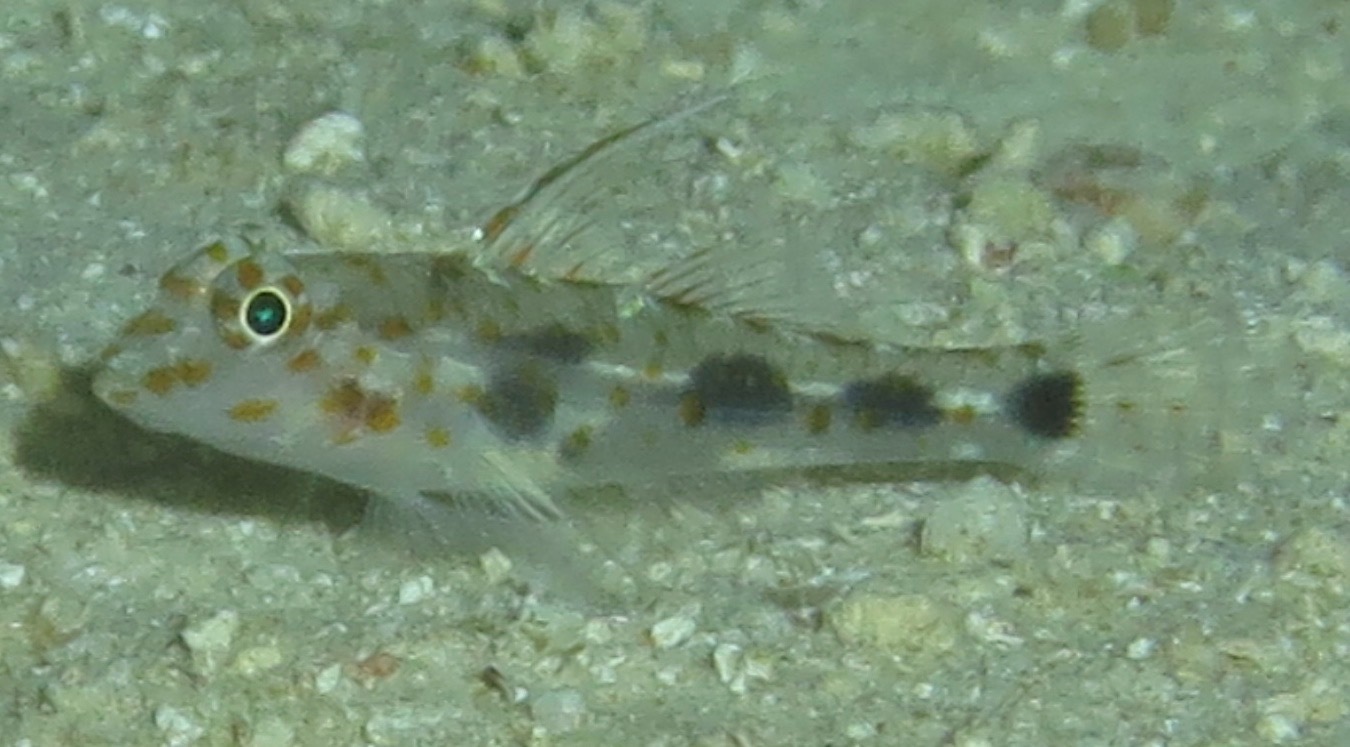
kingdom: Animalia
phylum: Chordata
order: Perciformes
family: Gobiidae
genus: Fusigobius
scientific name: Fusigobius inframaculatus
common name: Blotched goby
